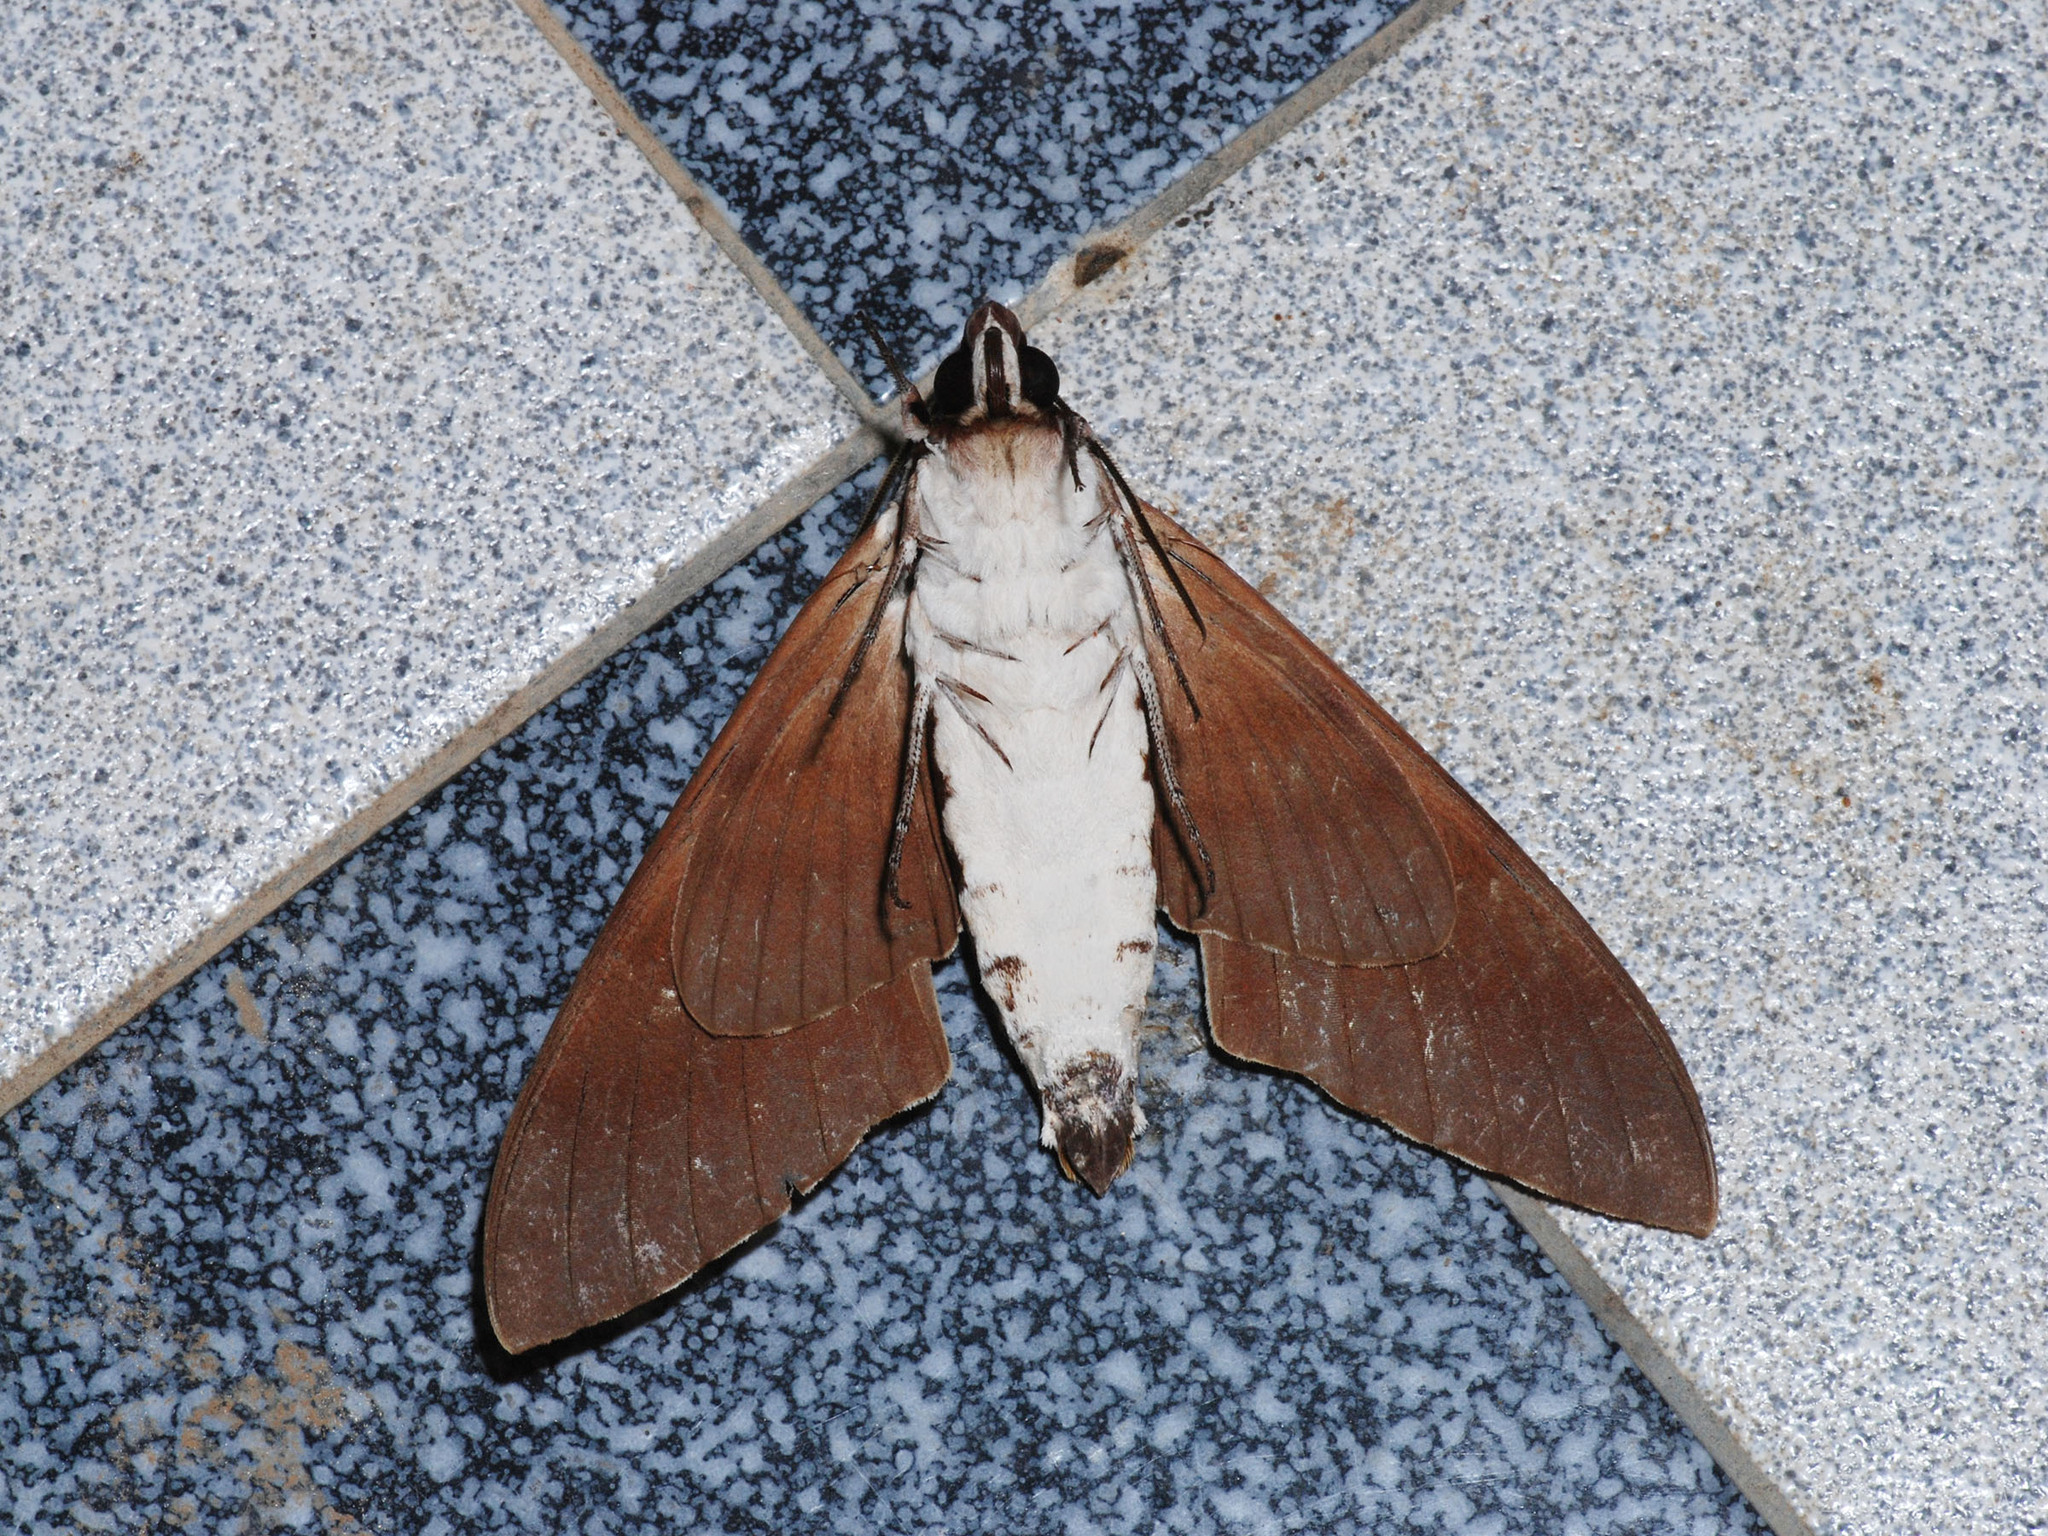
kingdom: Animalia
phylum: Arthropoda
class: Insecta
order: Lepidoptera
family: Sphingidae
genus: Cerberonoton
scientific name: Cerberonoton rubescens
